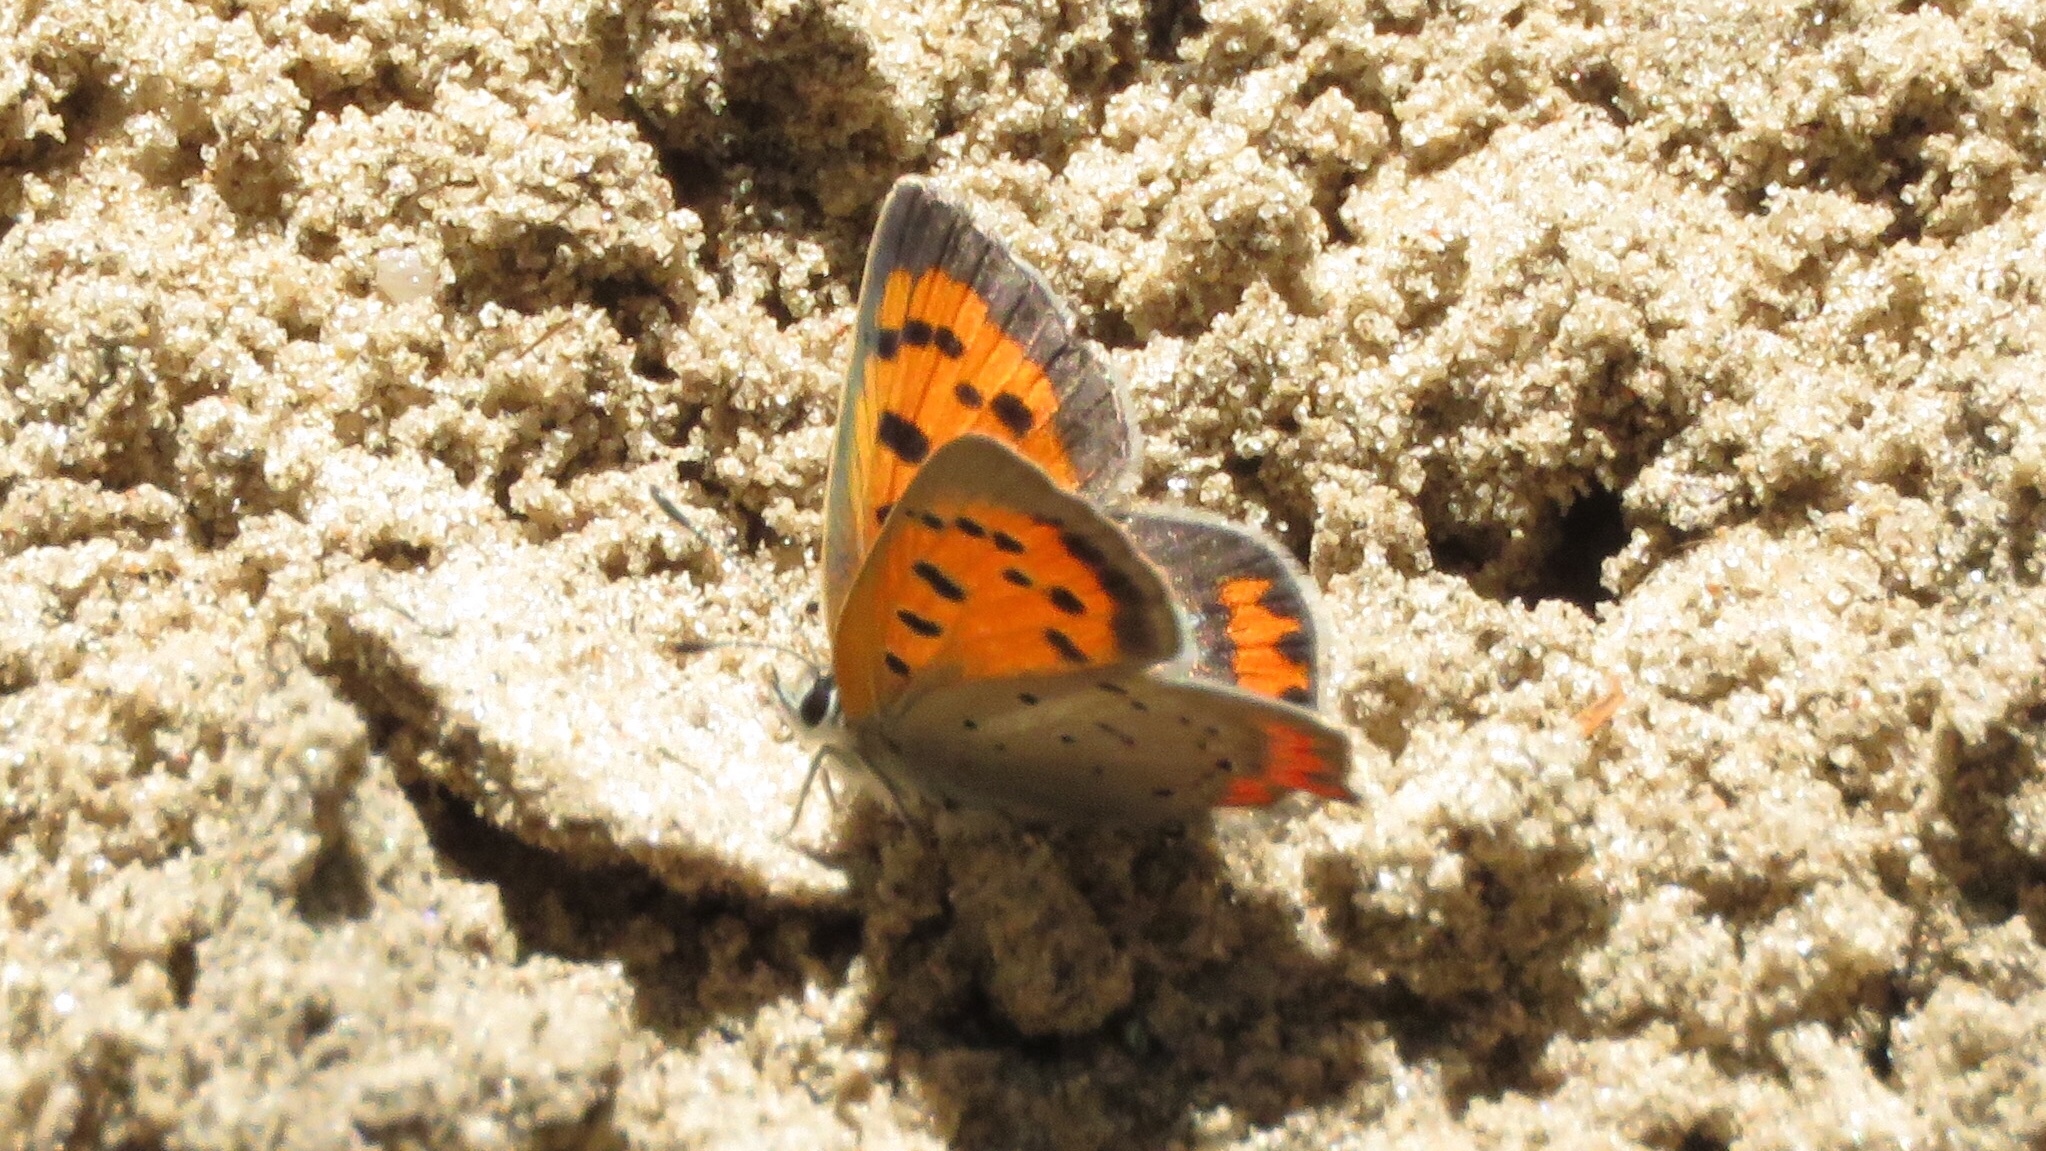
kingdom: Animalia
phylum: Arthropoda
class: Insecta
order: Lepidoptera
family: Lycaenidae
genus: Lycaena
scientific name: Lycaena hypophlaeas
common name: American copper
